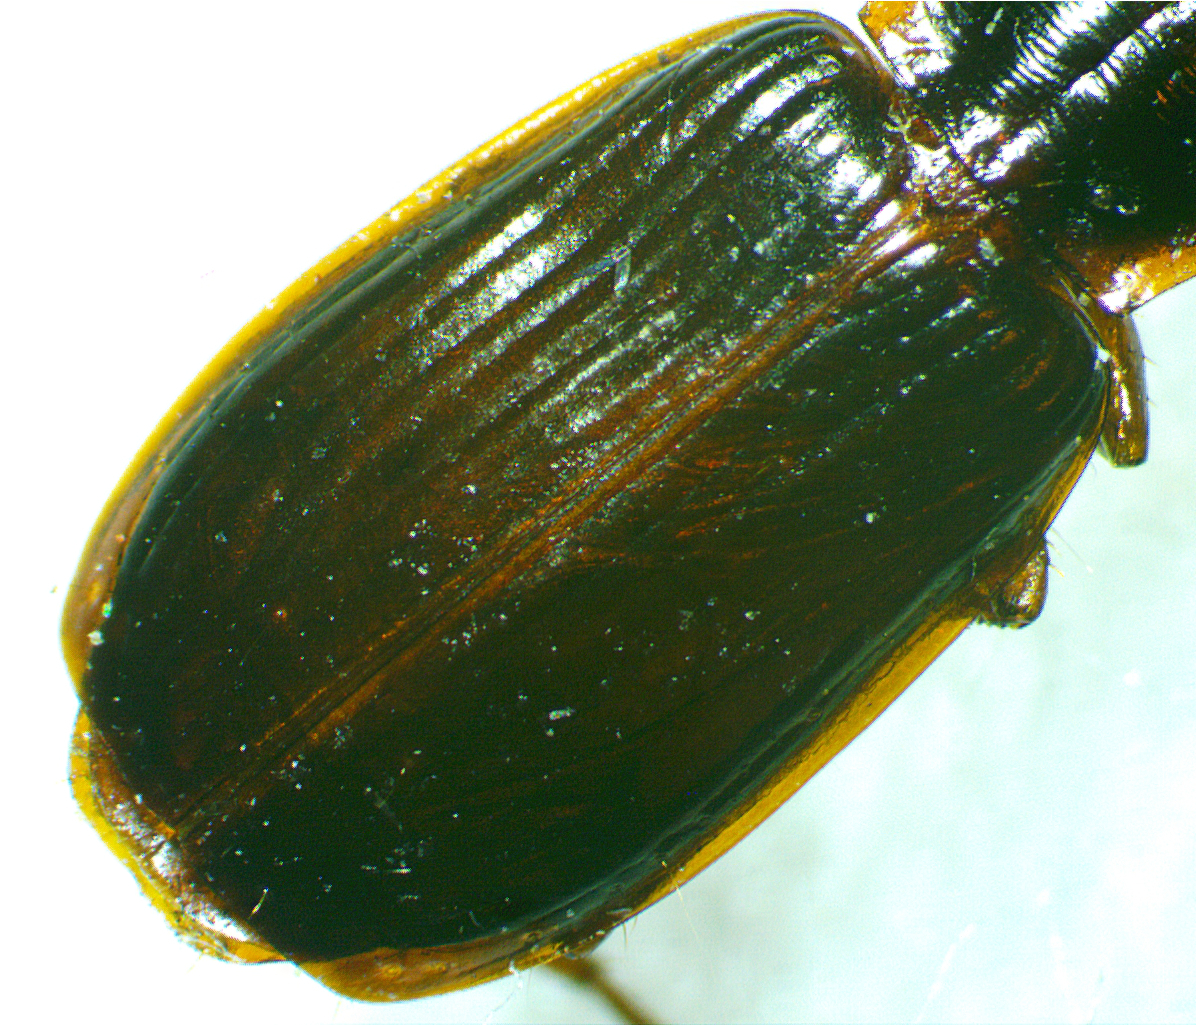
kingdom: Animalia
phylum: Arthropoda
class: Insecta
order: Coleoptera
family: Carabidae
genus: Plochionus
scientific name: Plochionus timidus
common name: Timid harp ground beetle
